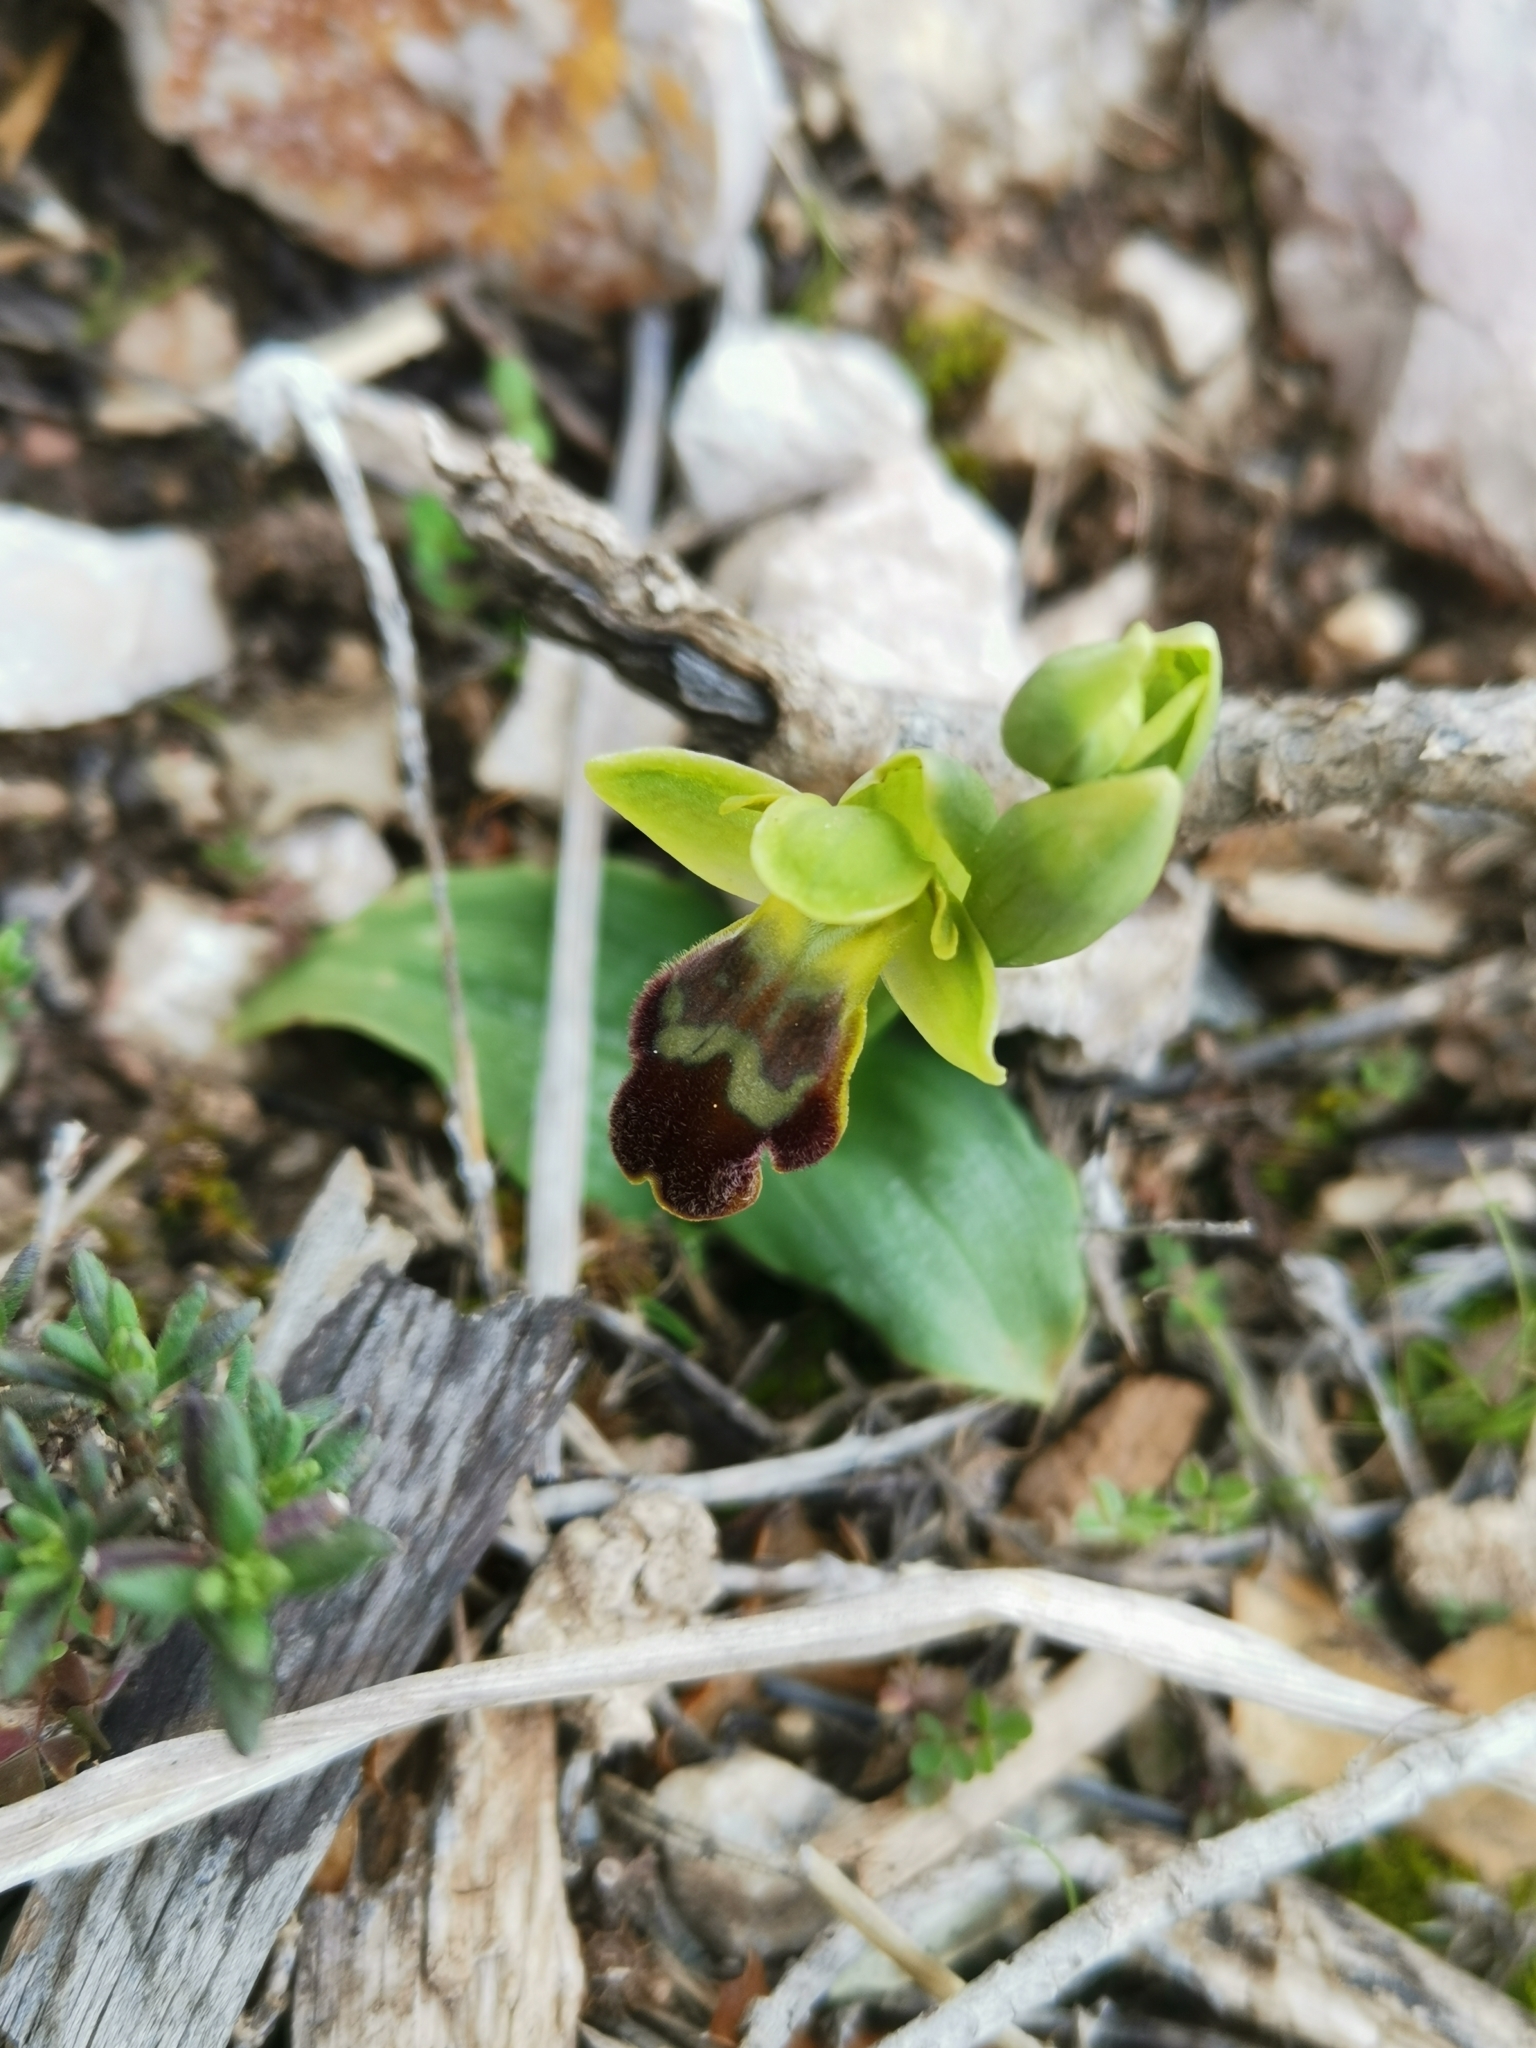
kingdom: Plantae
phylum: Tracheophyta
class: Liliopsida
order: Asparagales
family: Orchidaceae
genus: Ophrys
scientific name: Ophrys fusca
